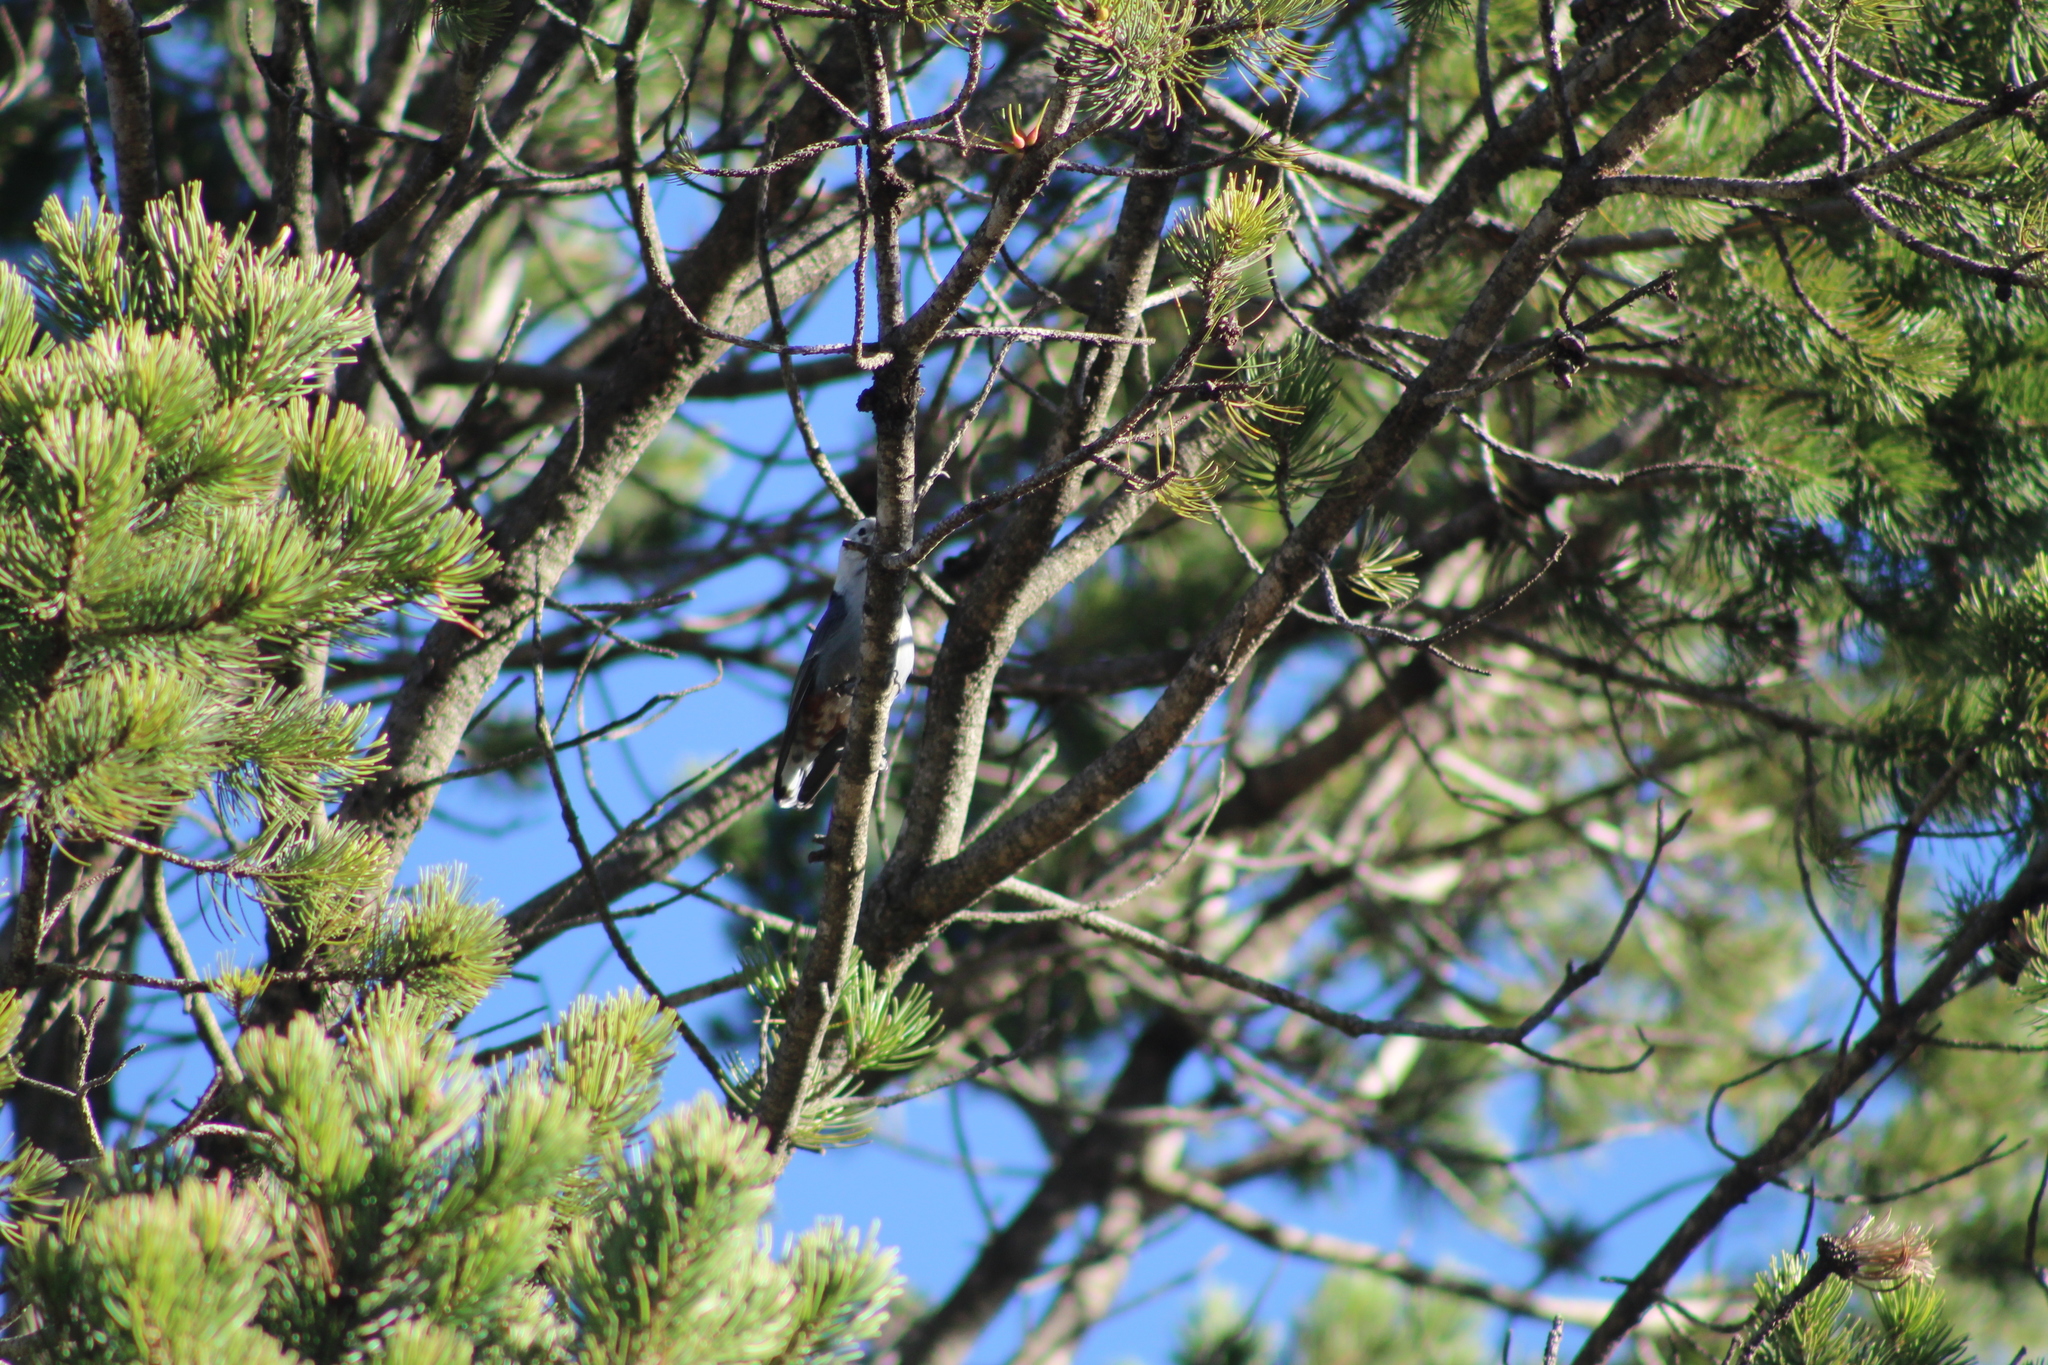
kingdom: Animalia
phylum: Chordata
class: Aves
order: Passeriformes
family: Sittidae
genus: Sitta
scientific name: Sitta carolinensis
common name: White-breasted nuthatch
